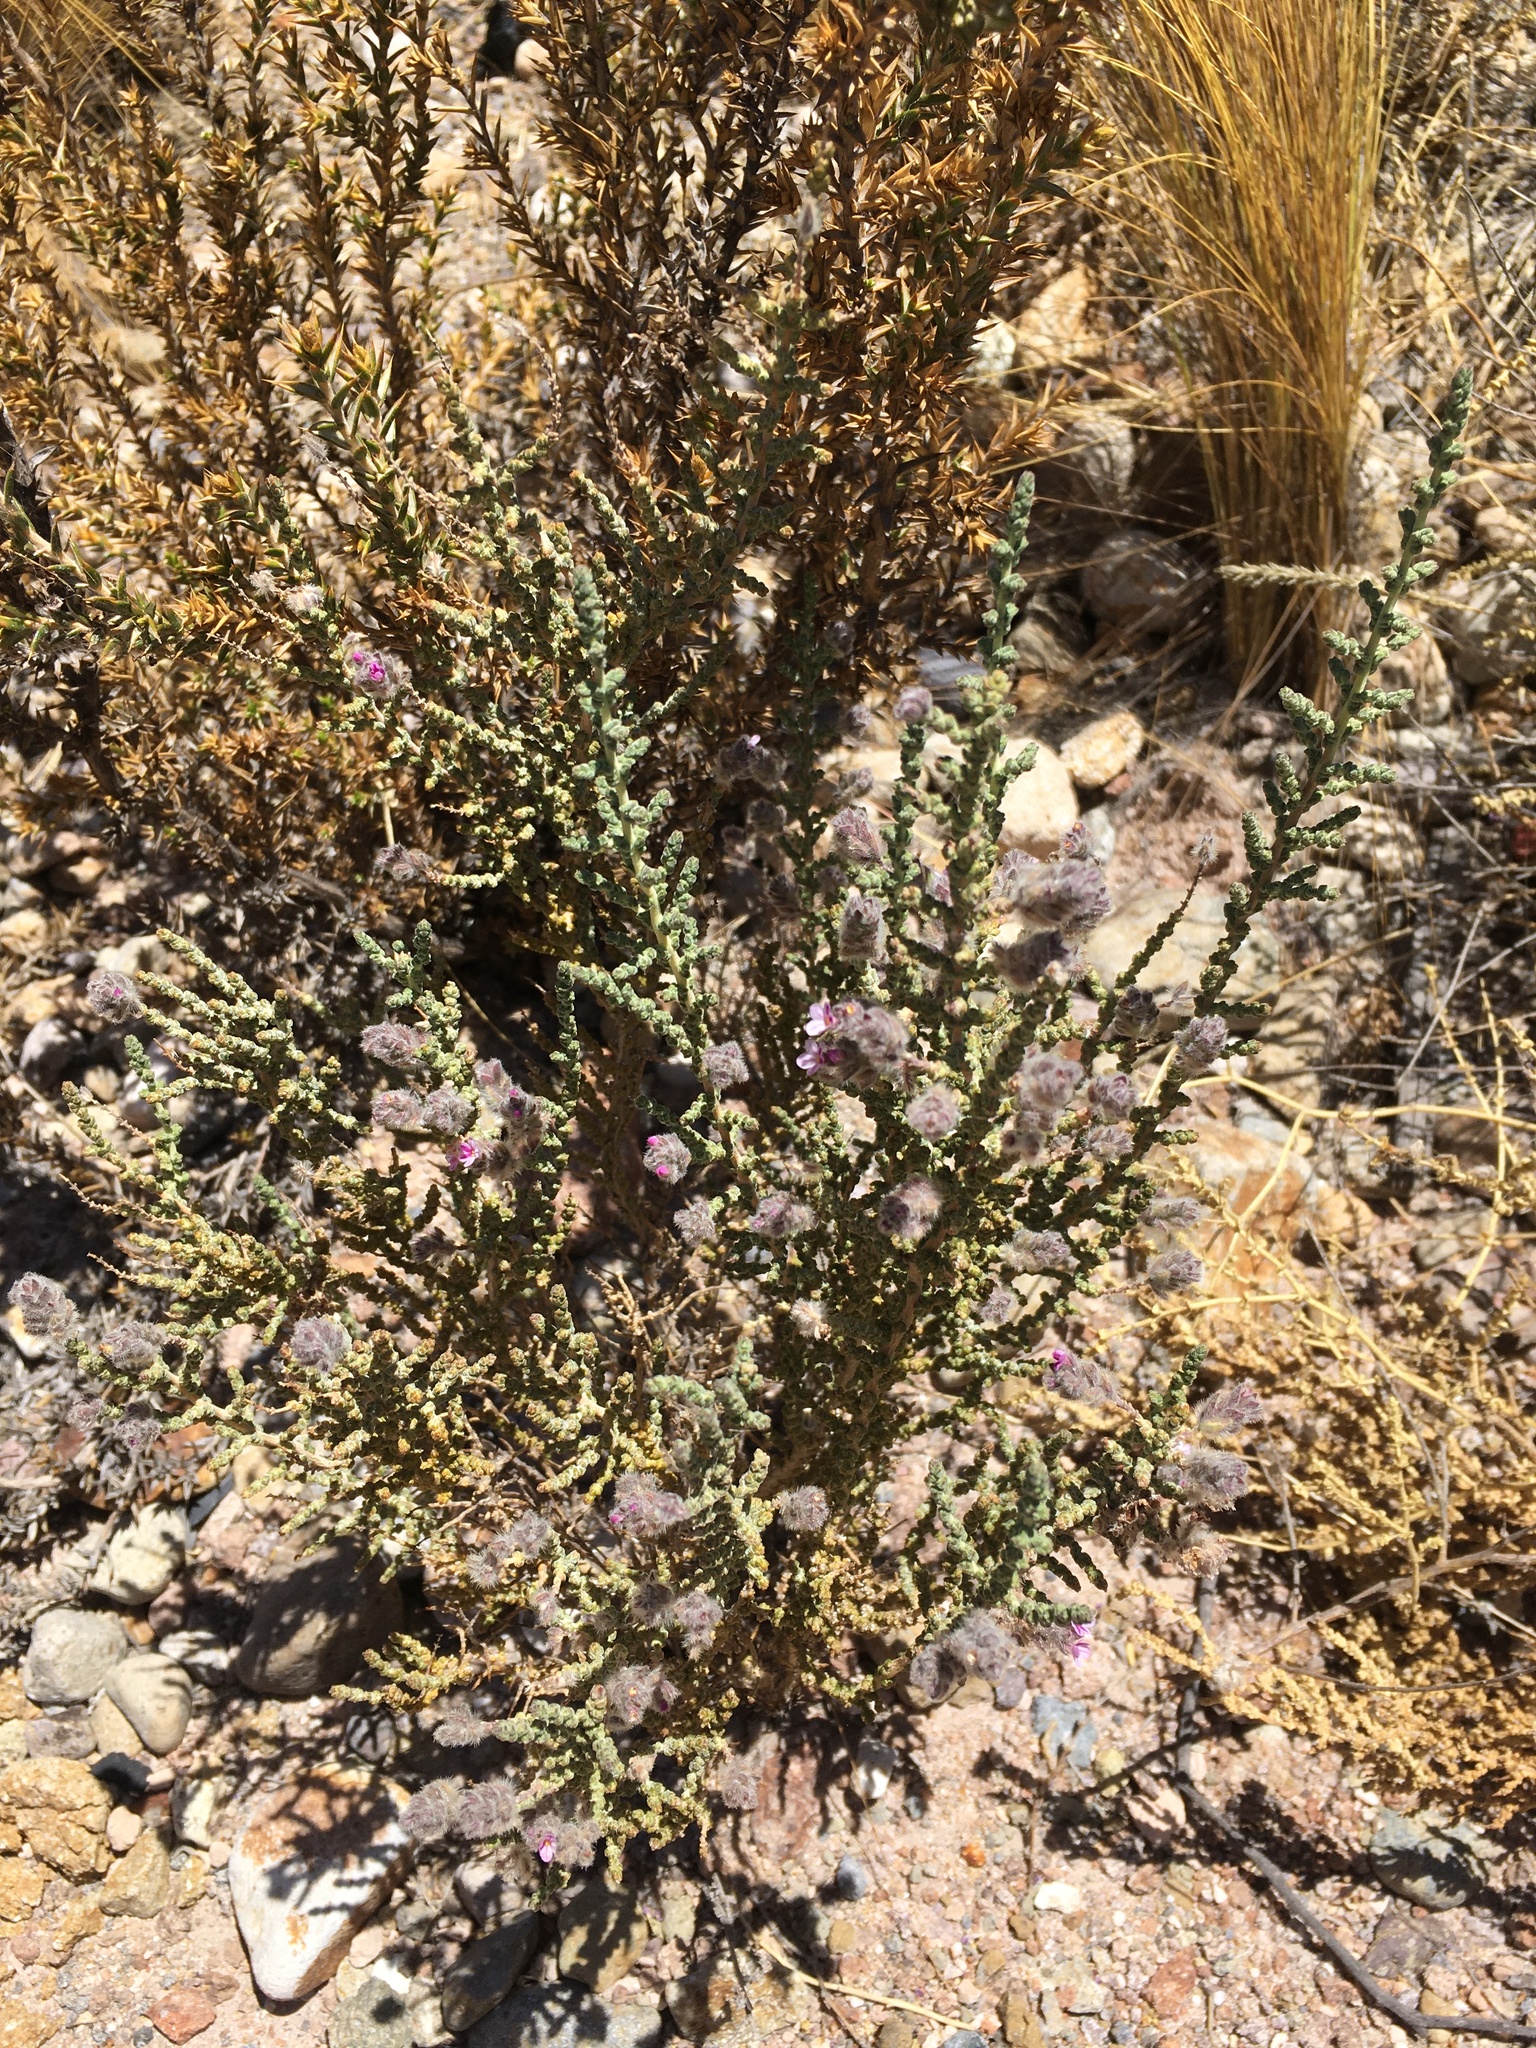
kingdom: Plantae
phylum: Tracheophyta
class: Magnoliopsida
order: Lamiales
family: Verbenaceae
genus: Aloysia
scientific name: Aloysia tarapacana
